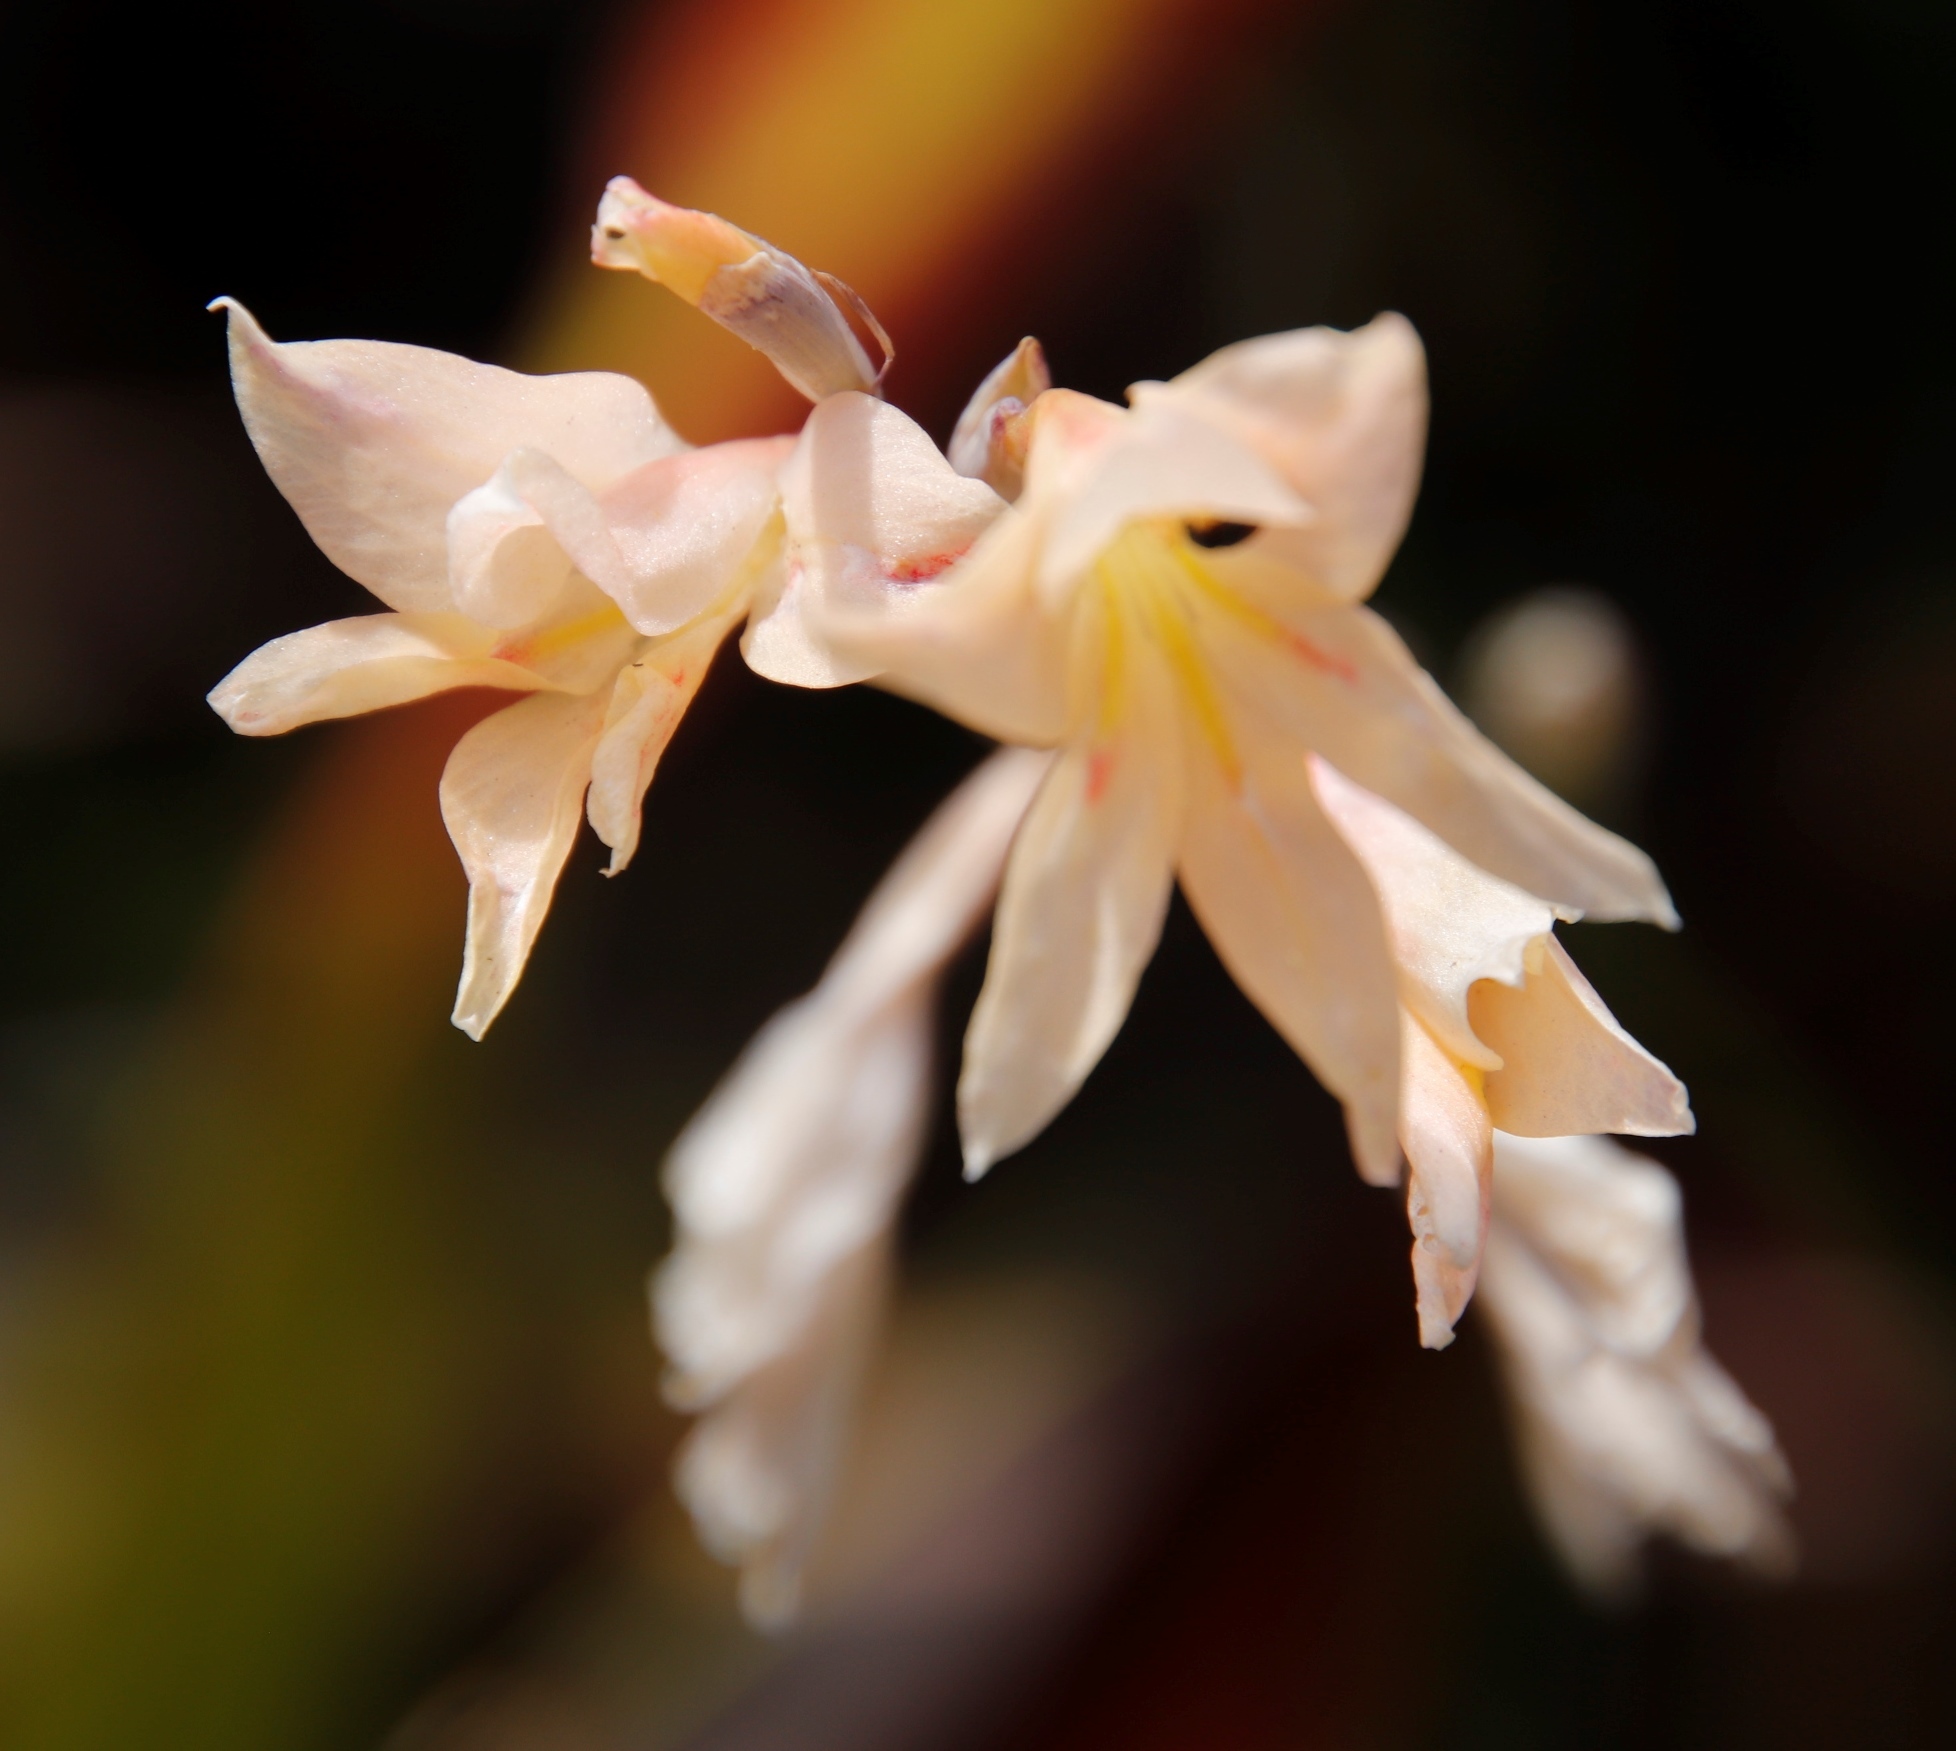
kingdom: Plantae
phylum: Tracheophyta
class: Liliopsida
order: Asparagales
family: Iridaceae
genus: Gladiolus
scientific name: Gladiolus monticola
